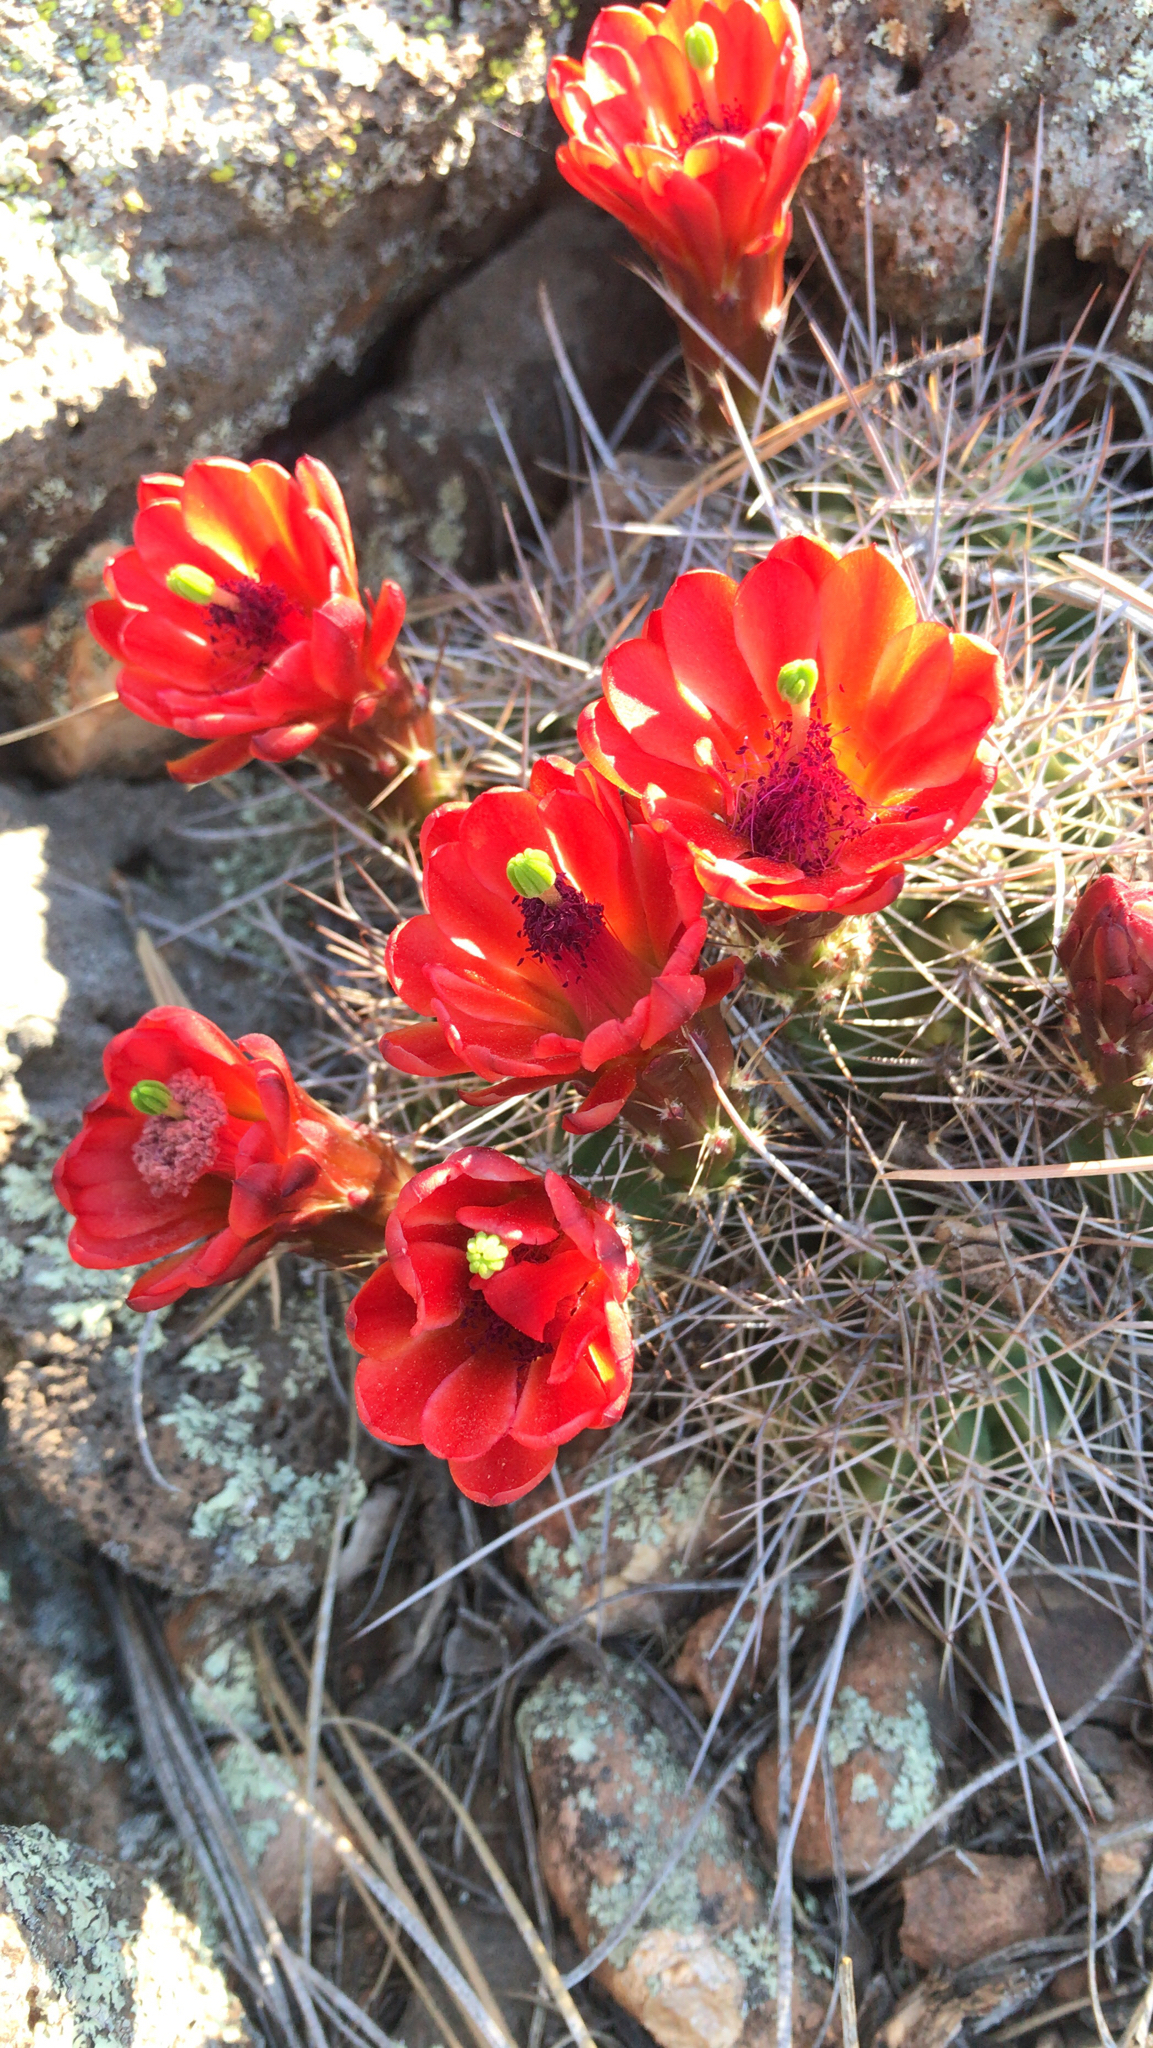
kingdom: Plantae
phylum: Tracheophyta
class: Magnoliopsida
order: Caryophyllales
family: Cactaceae
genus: Echinocereus
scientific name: Echinocereus bakeri
